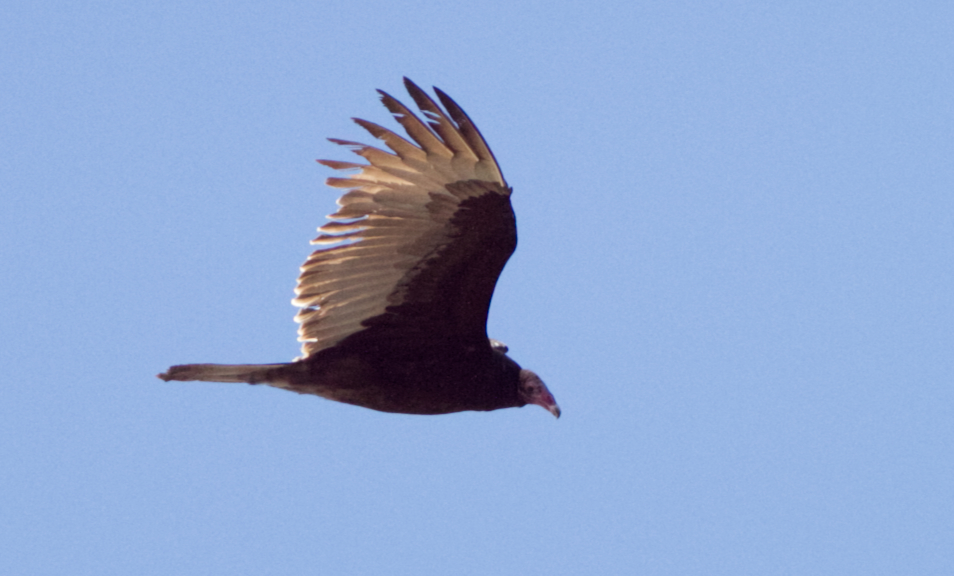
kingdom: Animalia
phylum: Chordata
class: Aves
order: Accipitriformes
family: Cathartidae
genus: Cathartes
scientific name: Cathartes aura
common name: Turkey vulture
